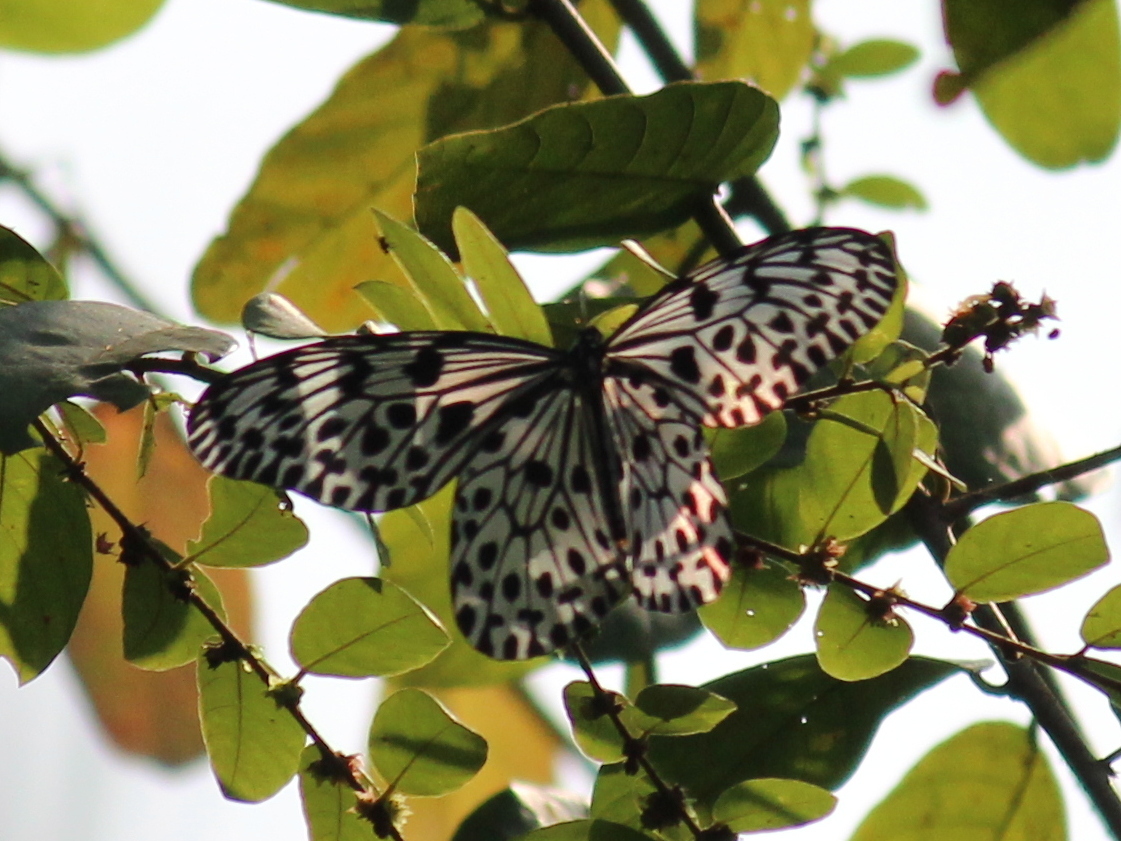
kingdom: Animalia
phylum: Arthropoda
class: Insecta
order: Lepidoptera
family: Nymphalidae
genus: Idea
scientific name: Idea malabarica
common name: Malabar tree-nymph
